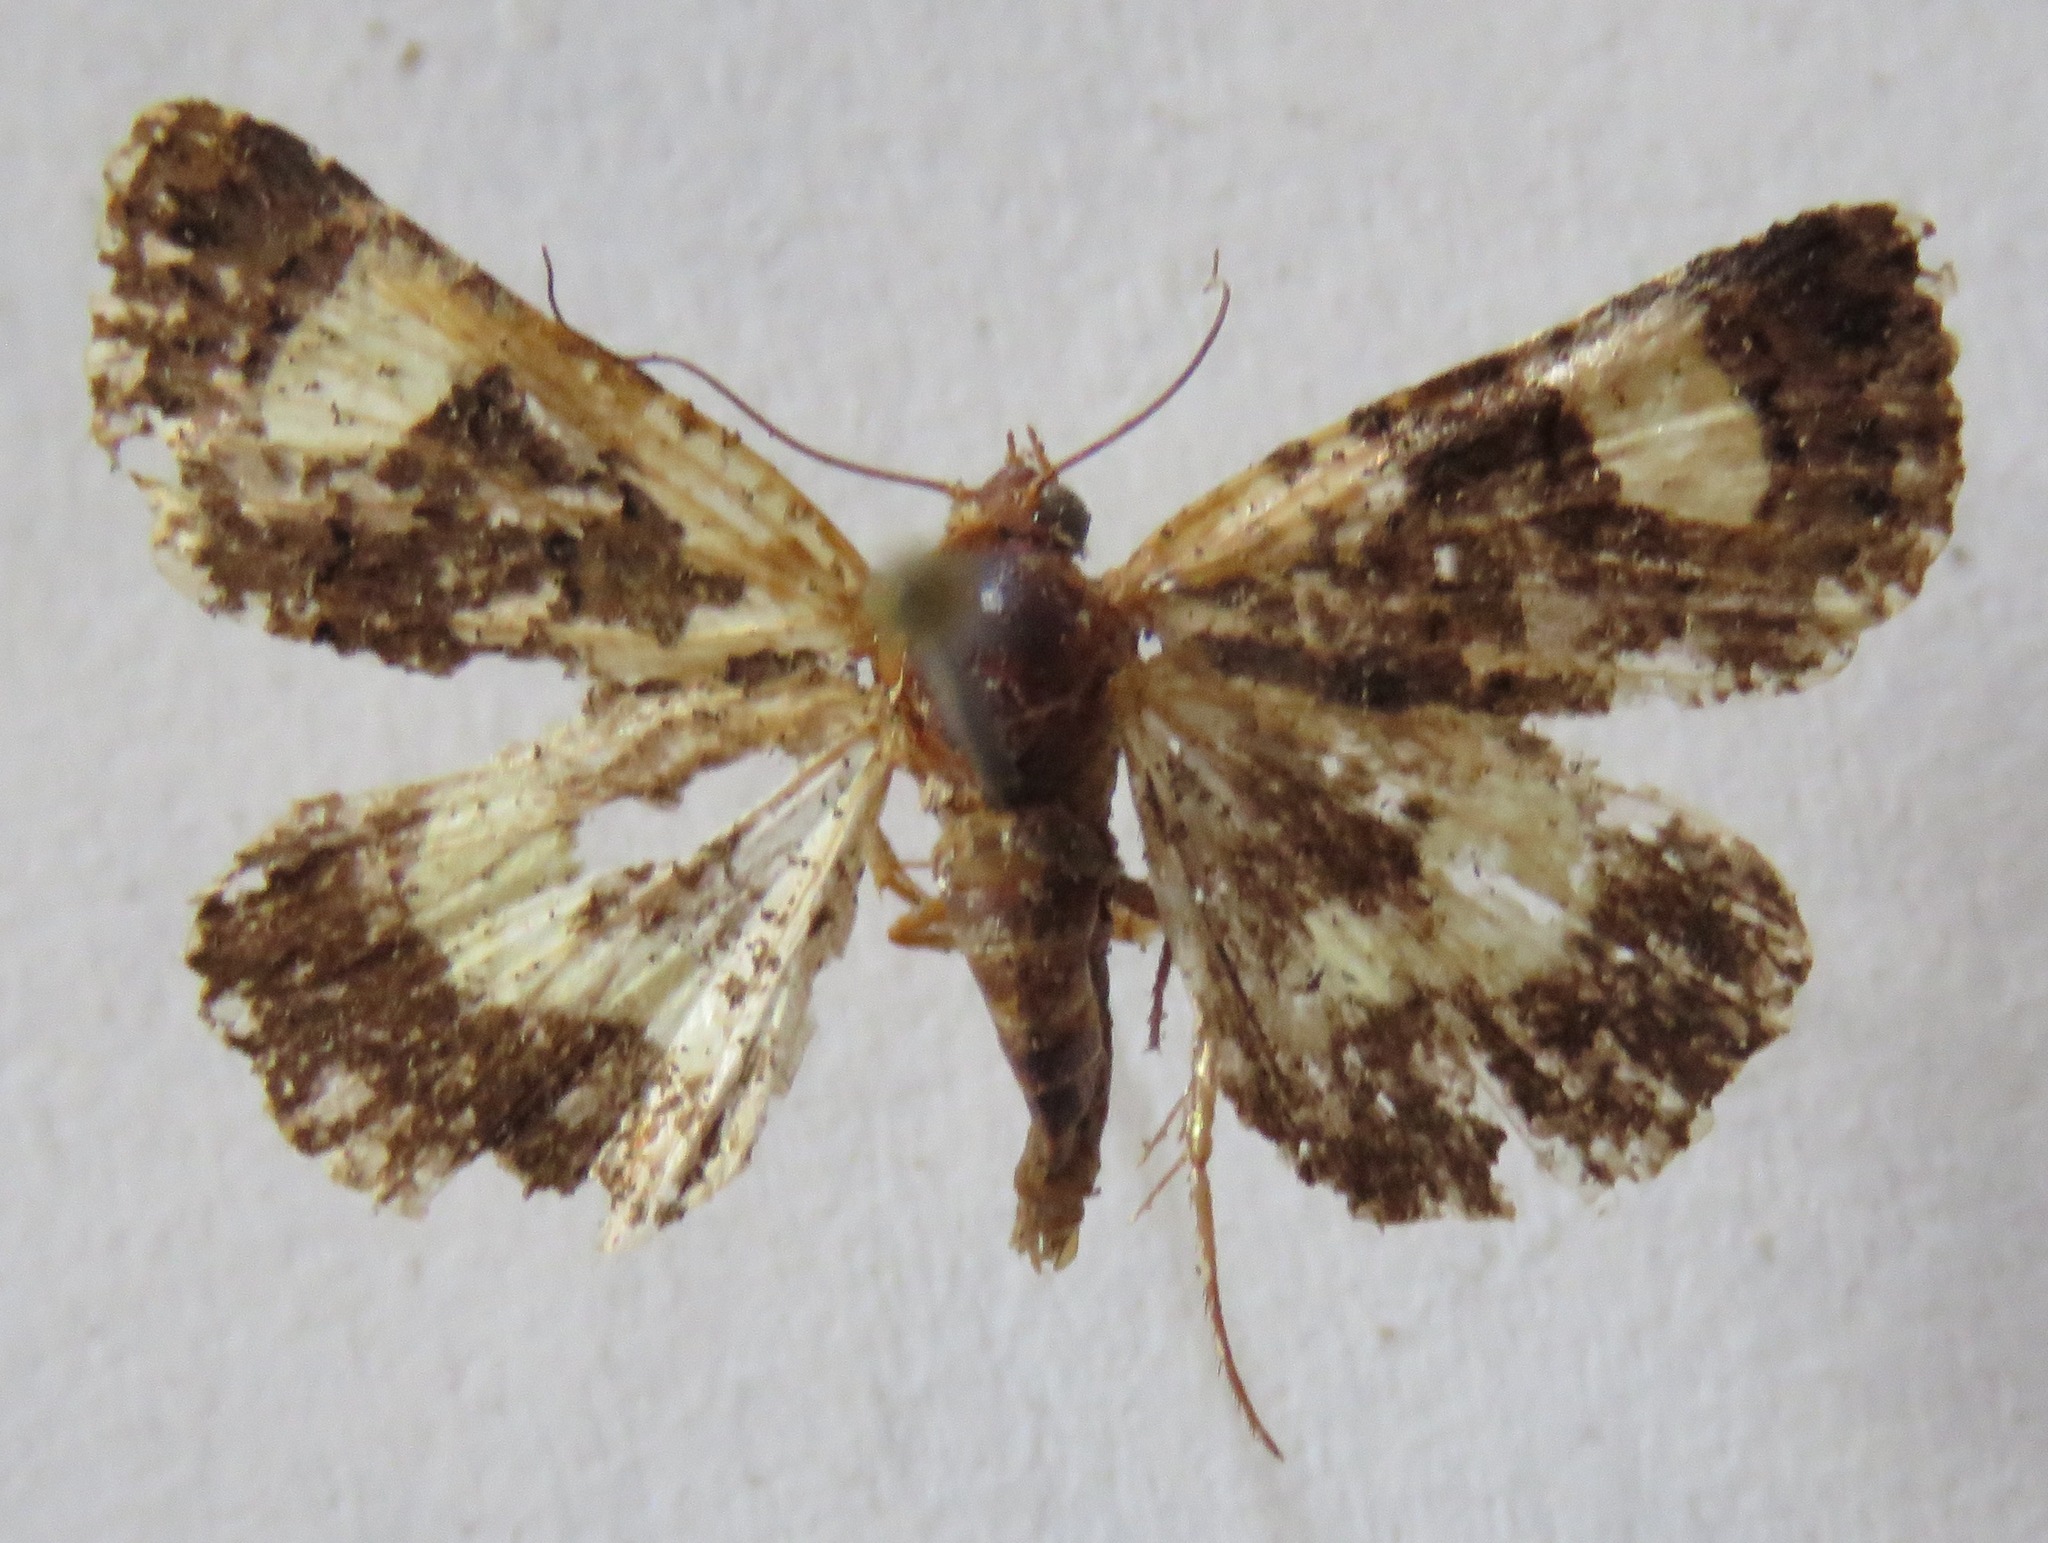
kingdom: Animalia
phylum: Arthropoda
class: Insecta
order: Lepidoptera
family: Erebidae
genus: Tyta
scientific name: Tyta luctuosa
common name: Four-spotted
